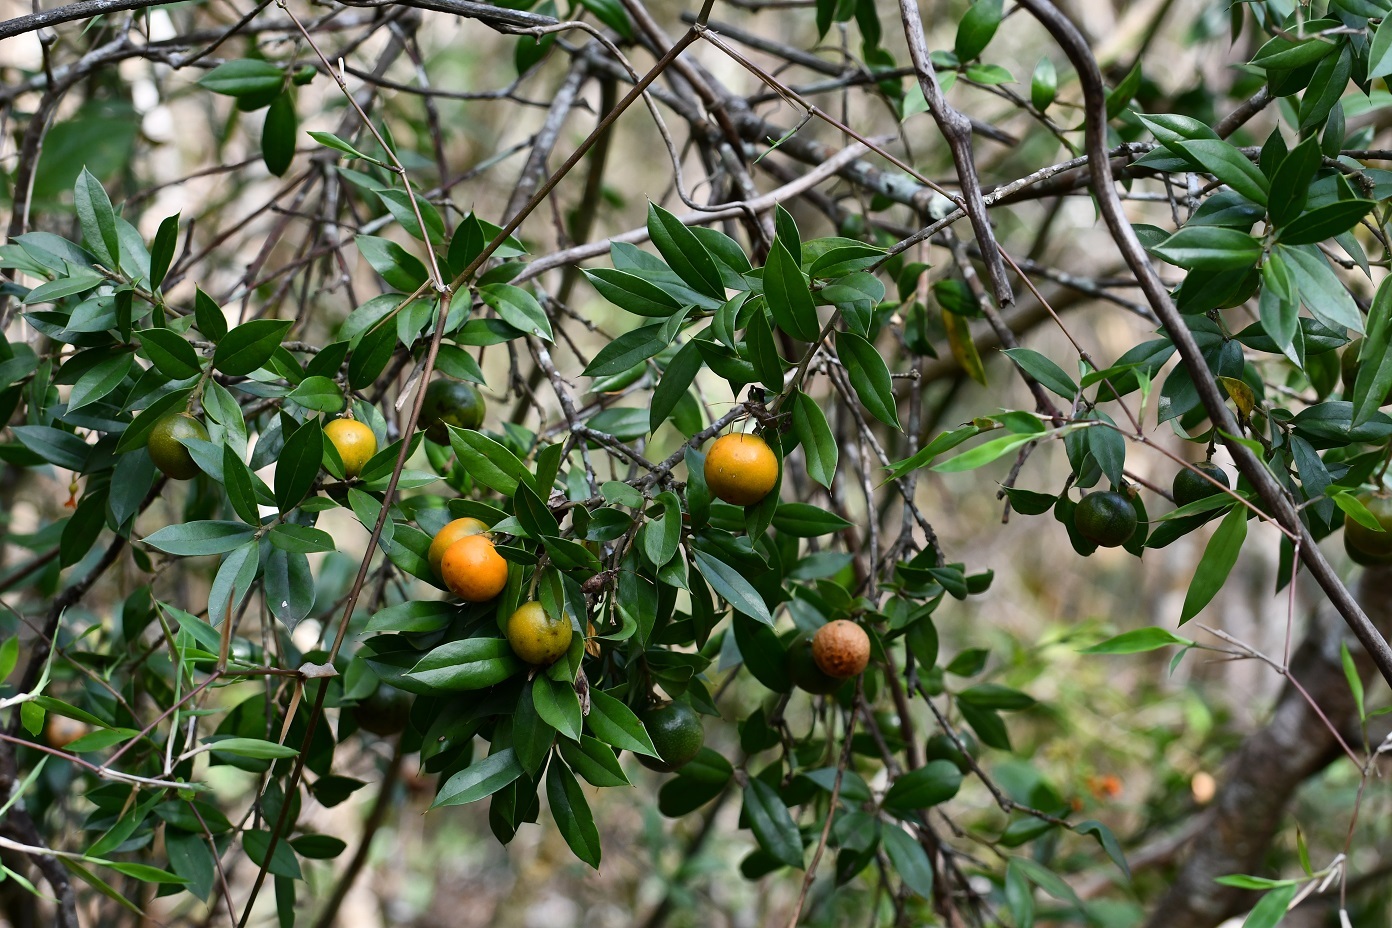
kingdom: Plantae
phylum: Tracheophyta
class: Magnoliopsida
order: Ericales
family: Primulaceae
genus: Bonellia
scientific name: Bonellia macrocarpa
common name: Primrose
